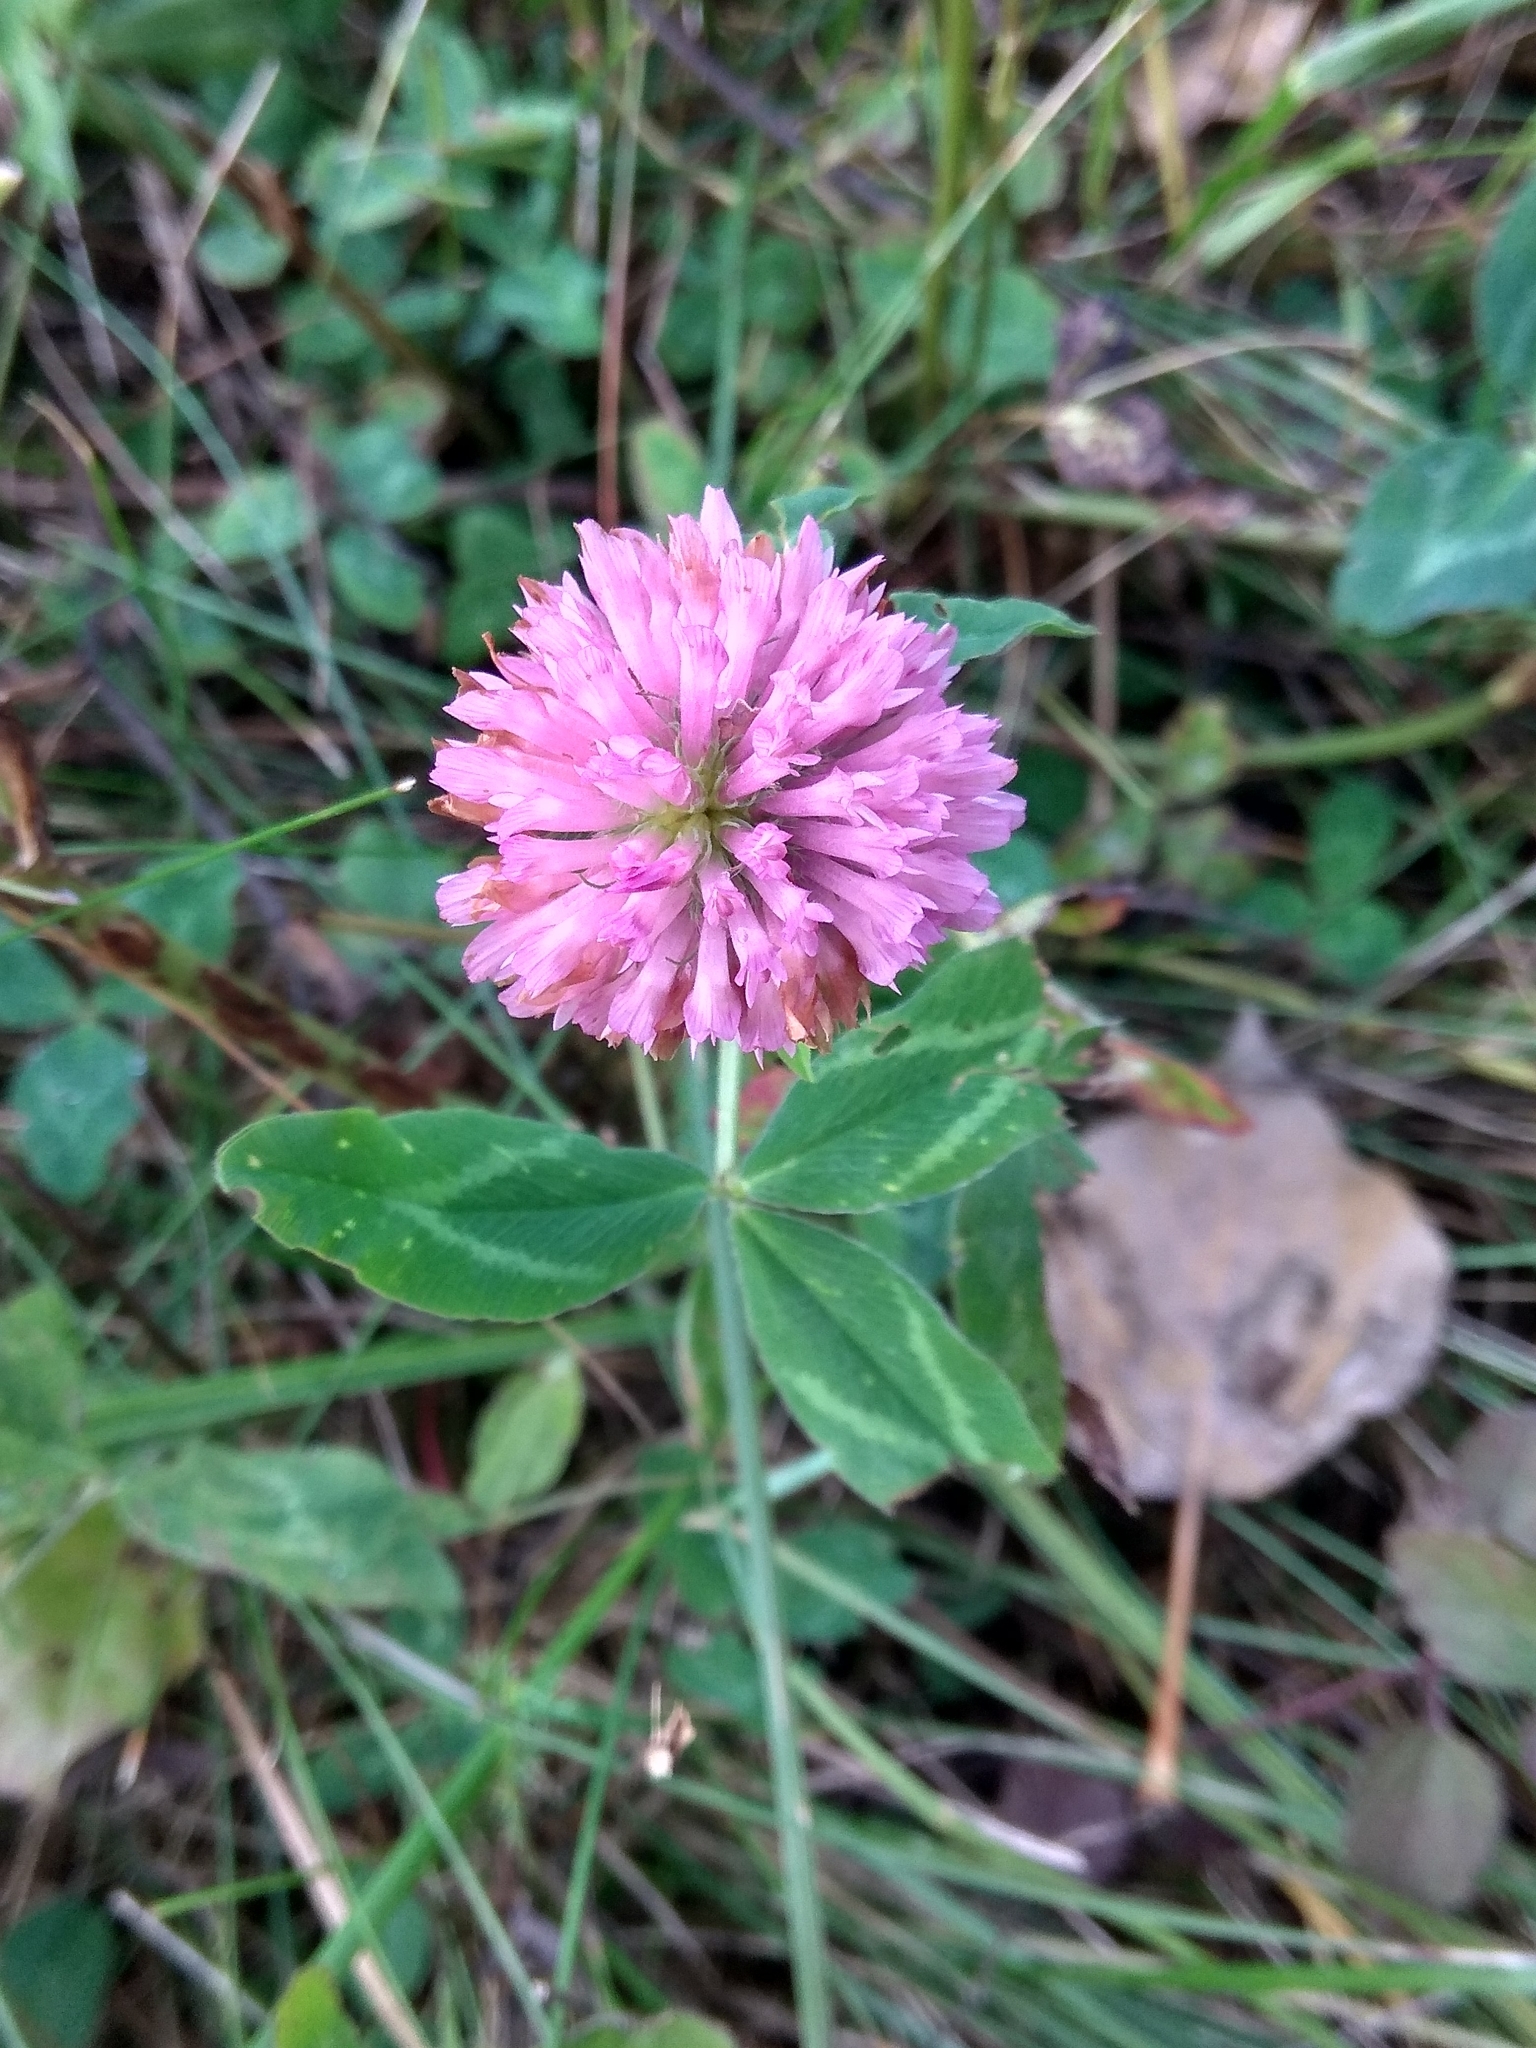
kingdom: Plantae
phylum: Tracheophyta
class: Magnoliopsida
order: Fabales
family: Fabaceae
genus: Trifolium
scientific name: Trifolium pratense
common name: Red clover
